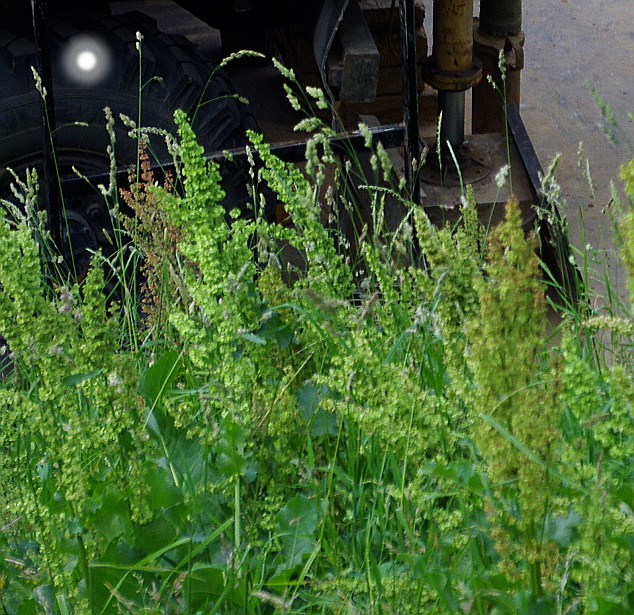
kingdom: Plantae
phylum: Tracheophyta
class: Liliopsida
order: Poales
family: Poaceae
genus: Dactylis
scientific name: Dactylis glomerata
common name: Orchardgrass
